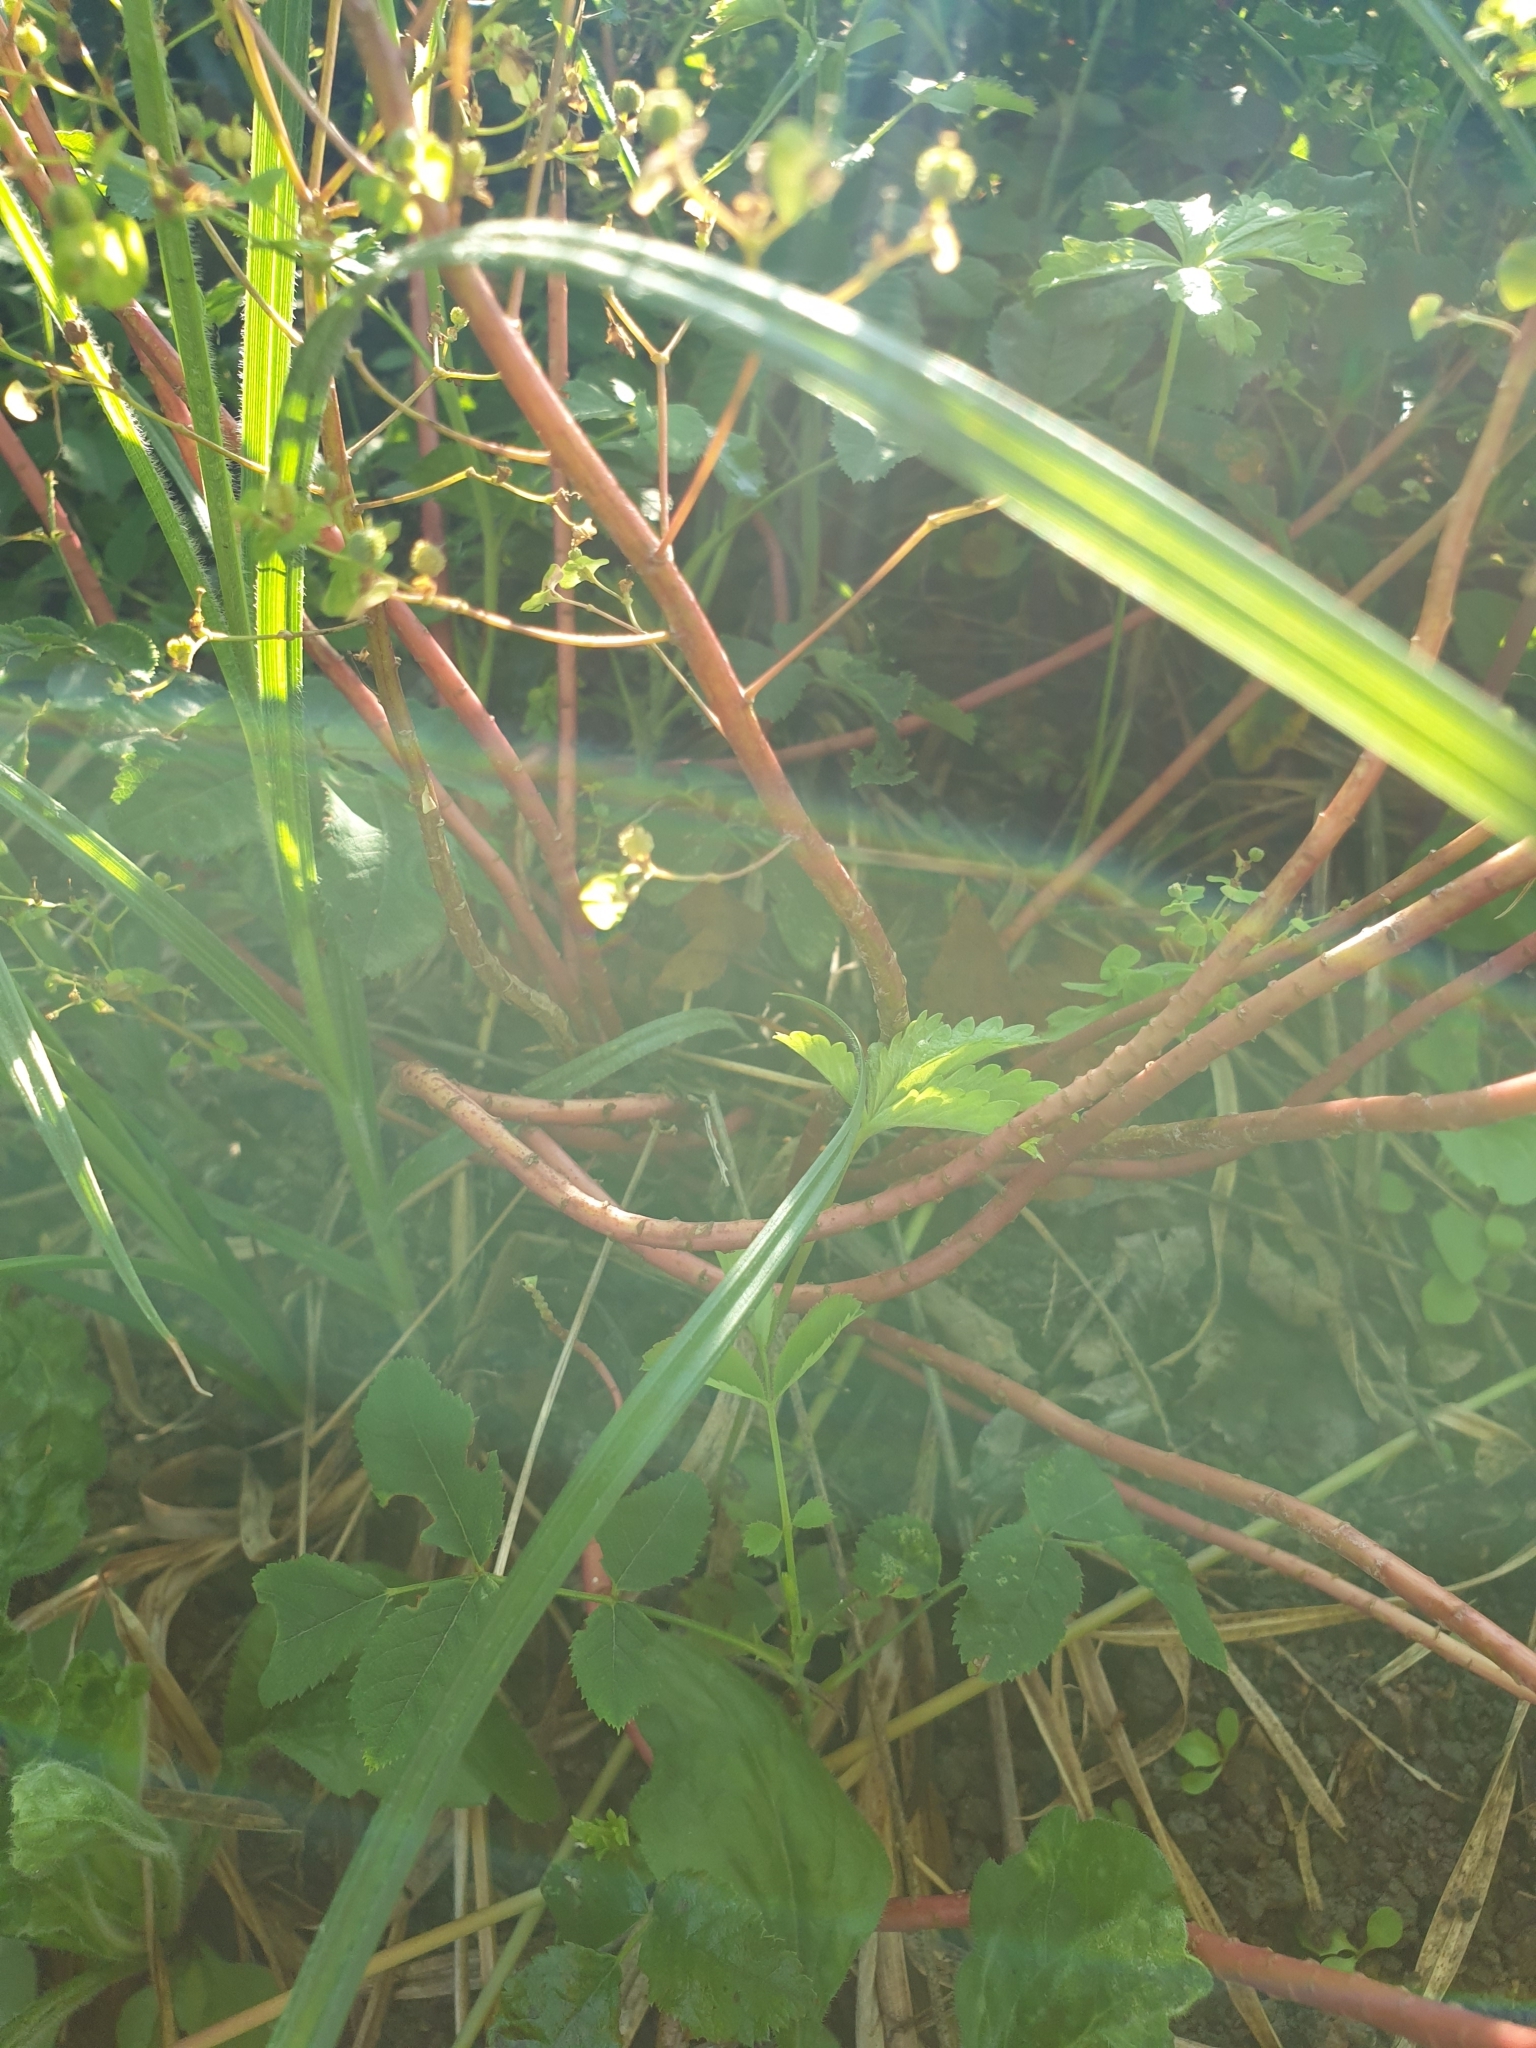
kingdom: Plantae
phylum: Tracheophyta
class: Magnoliopsida
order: Malpighiales
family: Euphorbiaceae
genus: Euphorbia
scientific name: Euphorbia stricta
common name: Upright spurge
